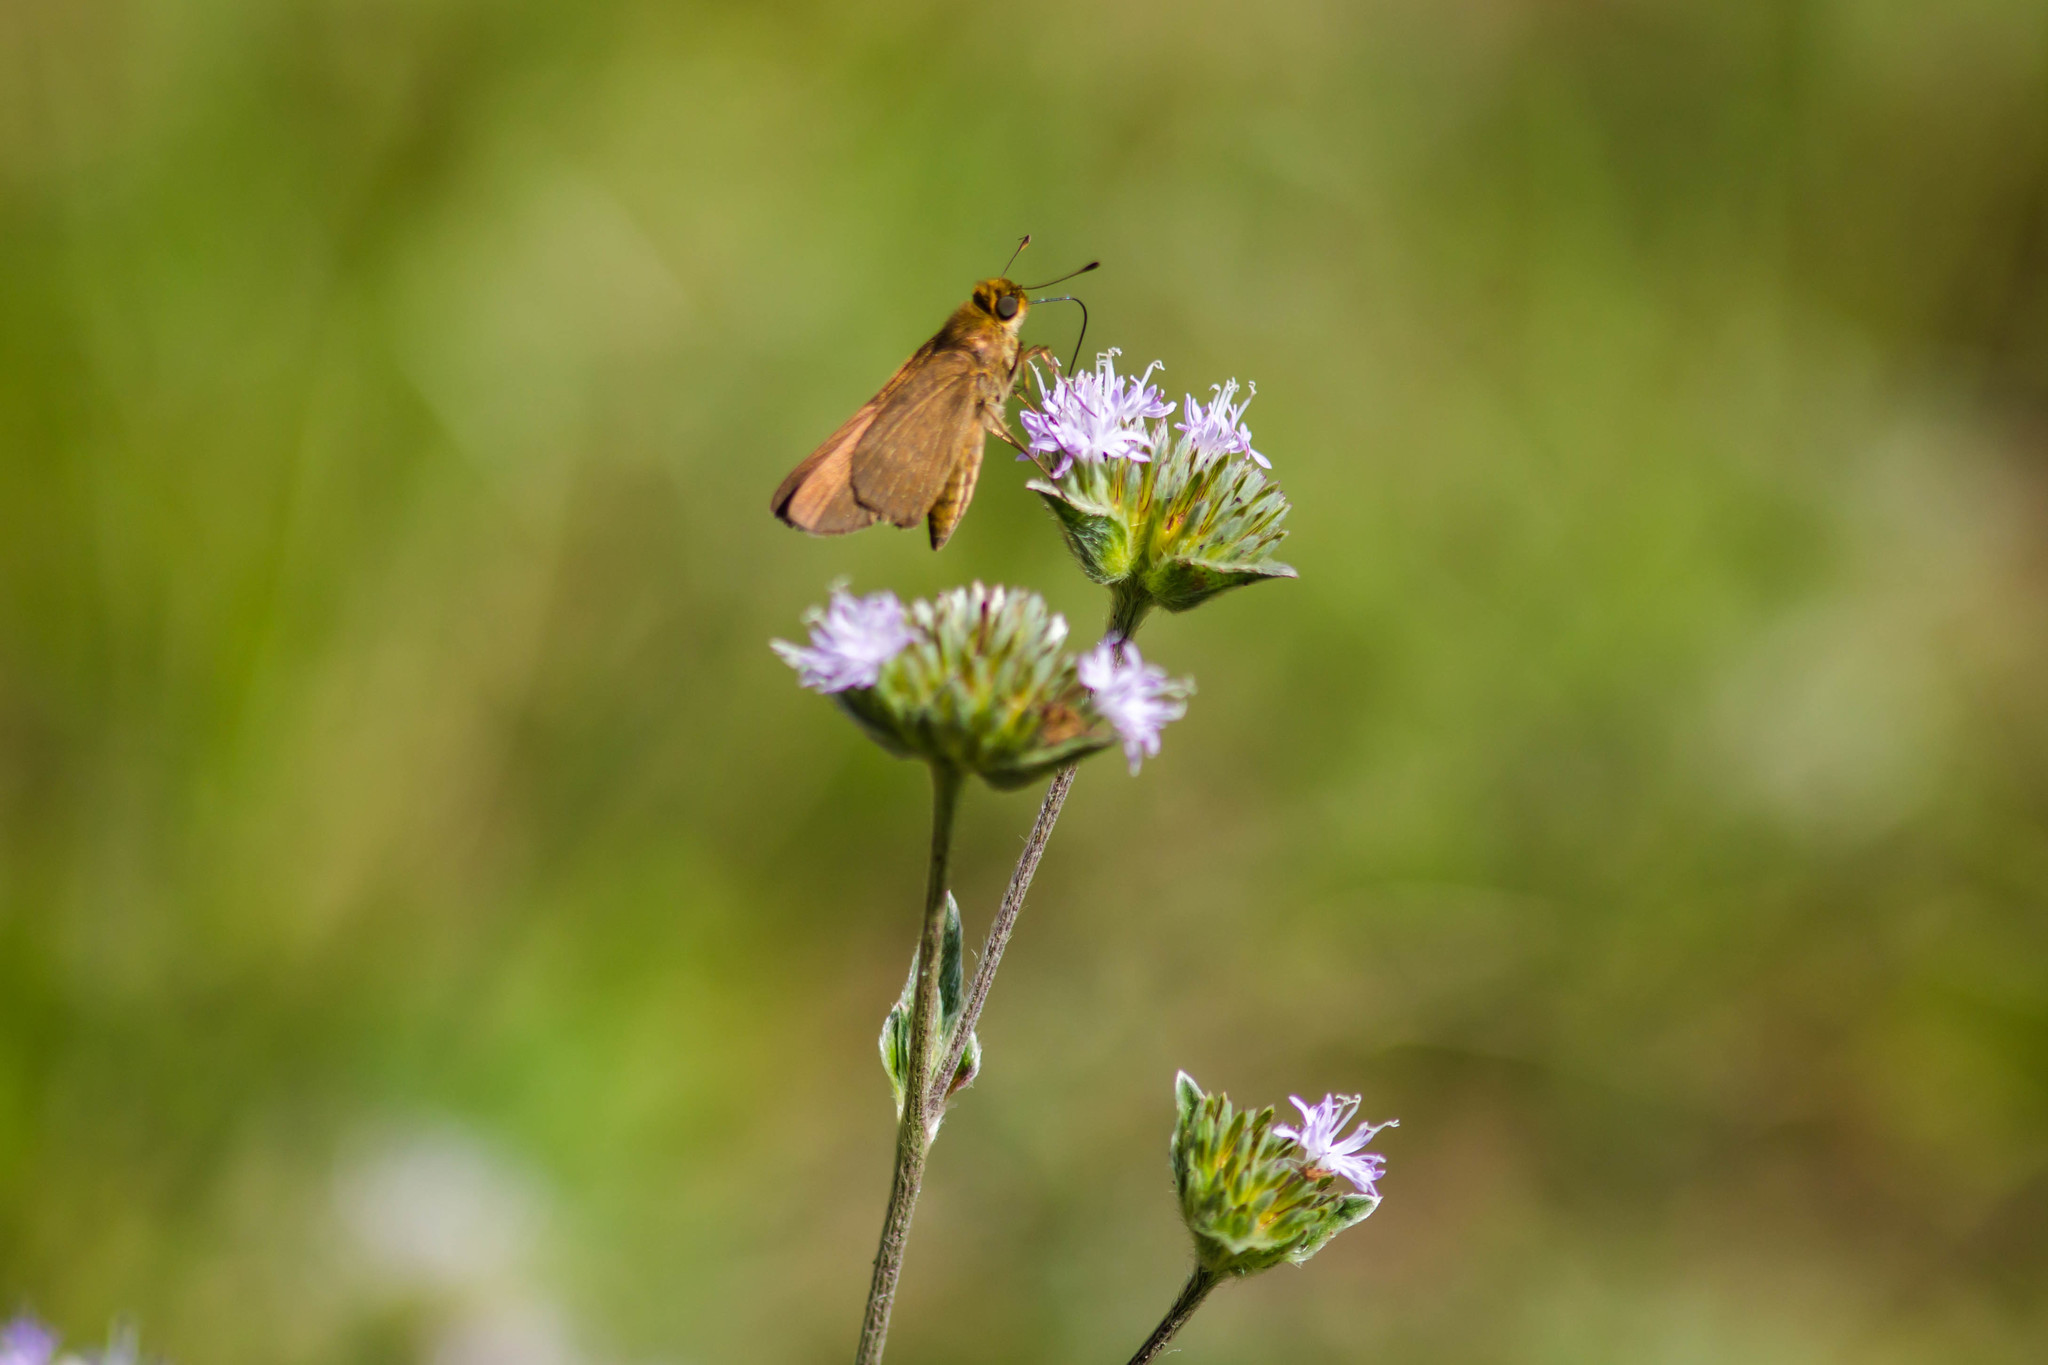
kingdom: Animalia
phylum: Arthropoda
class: Insecta
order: Lepidoptera
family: Hesperiidae
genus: Panoquina
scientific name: Panoquina ocola
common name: Ocola skipper
